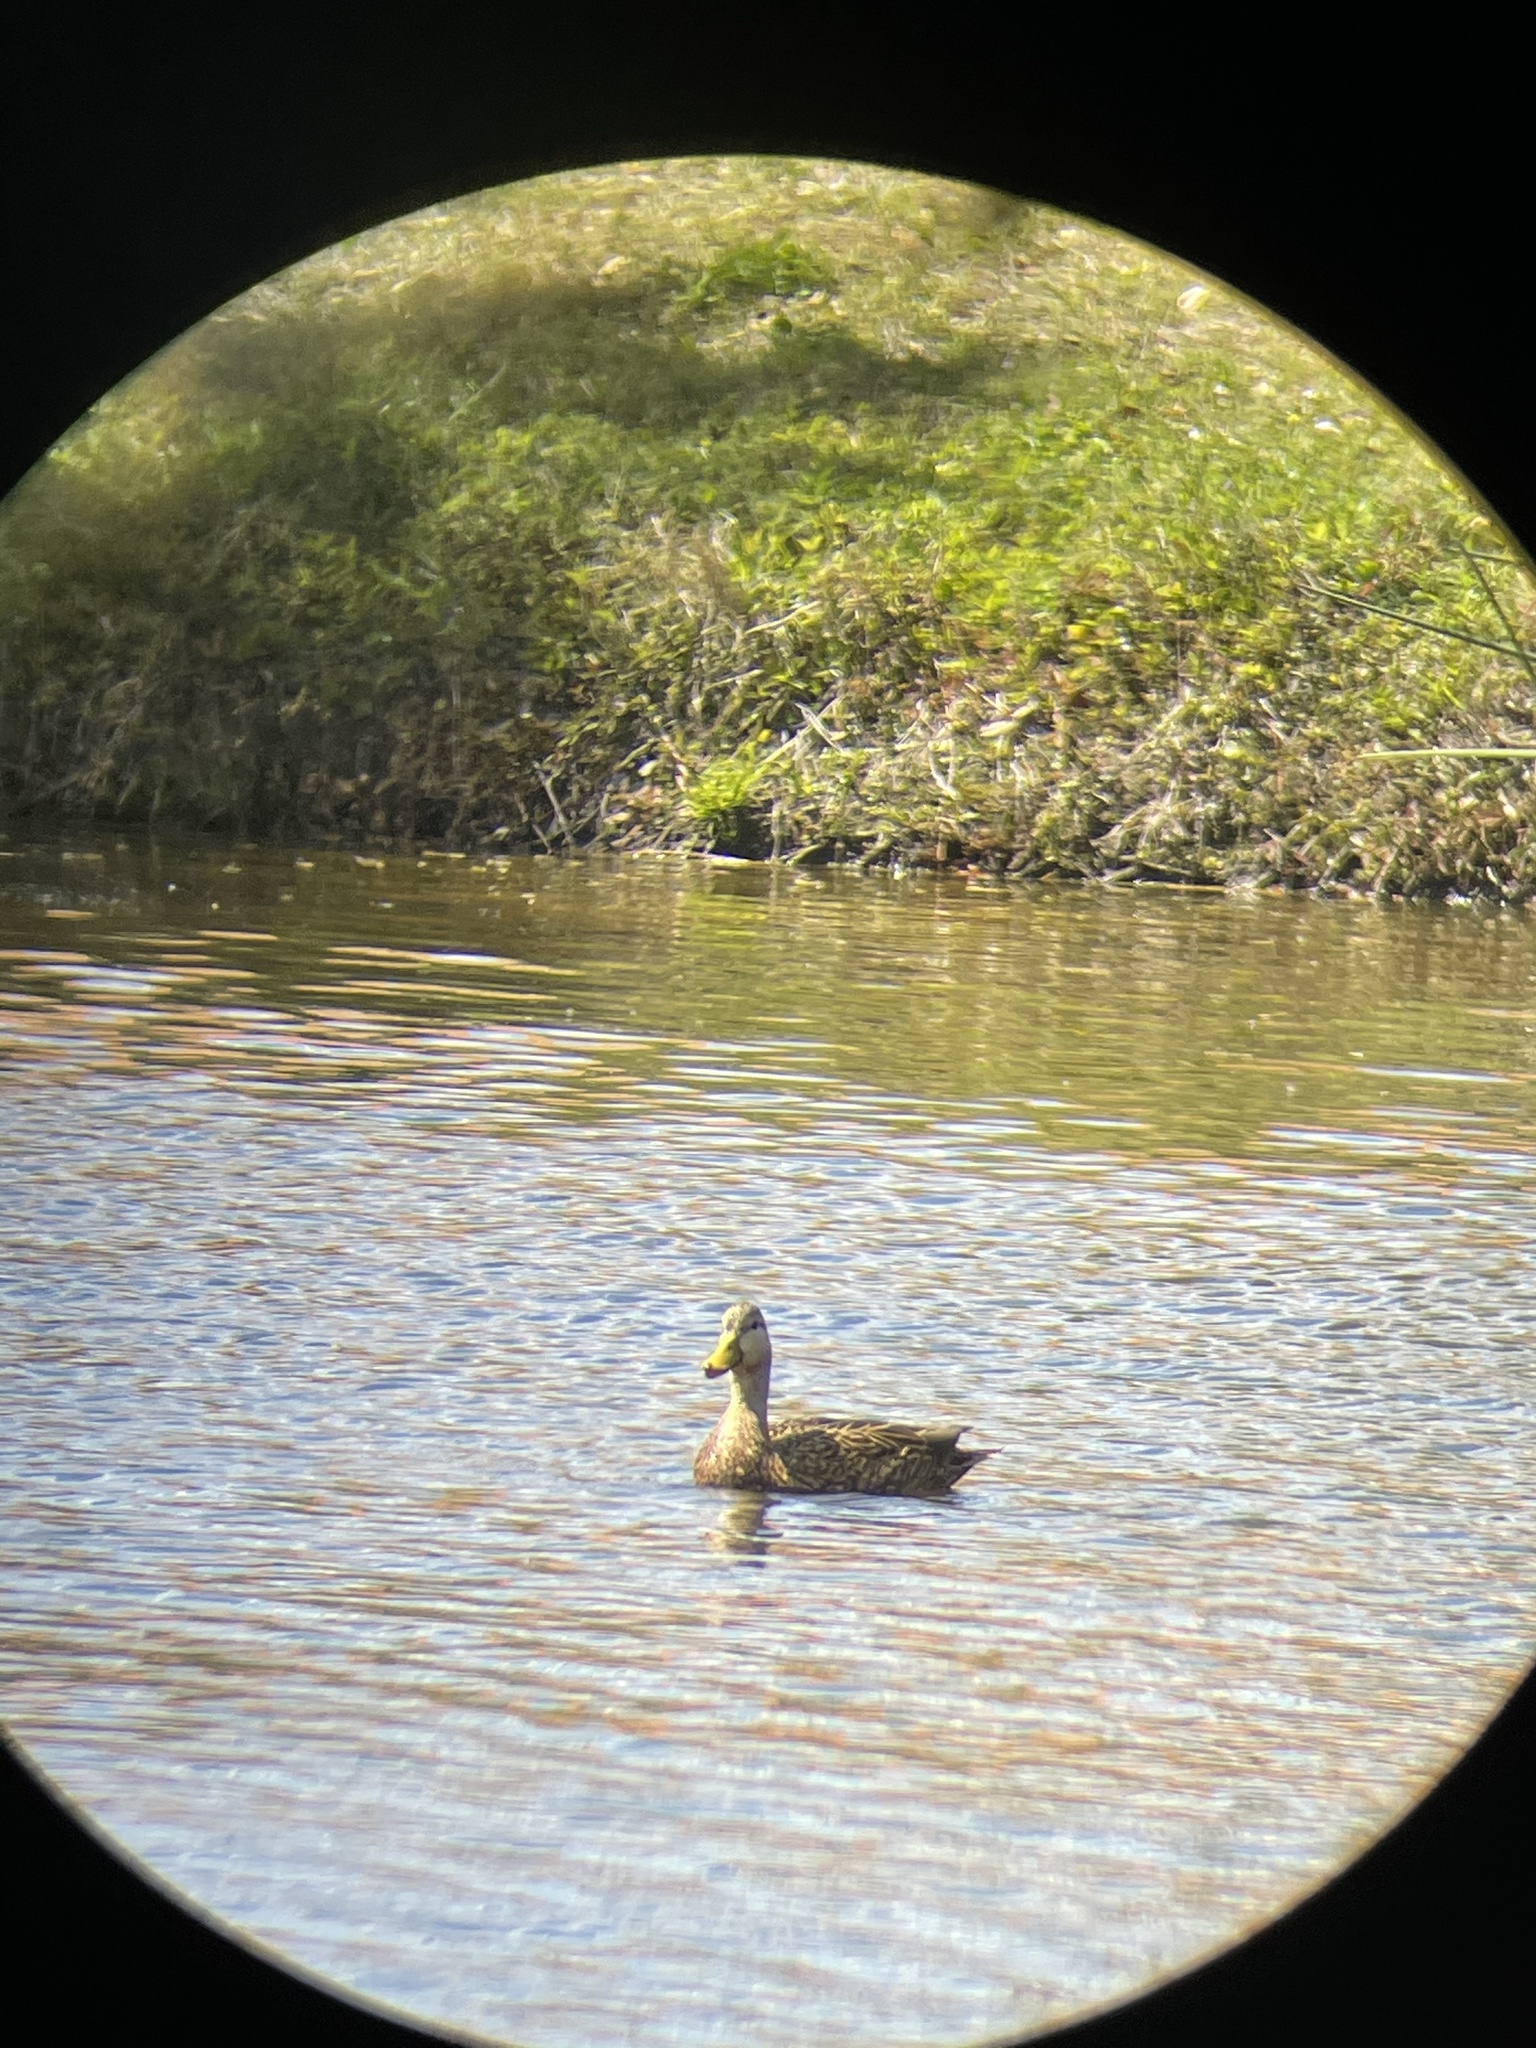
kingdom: Animalia
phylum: Chordata
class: Aves
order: Anseriformes
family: Anatidae
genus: Anas
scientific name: Anas fulvigula
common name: Mottled duck
